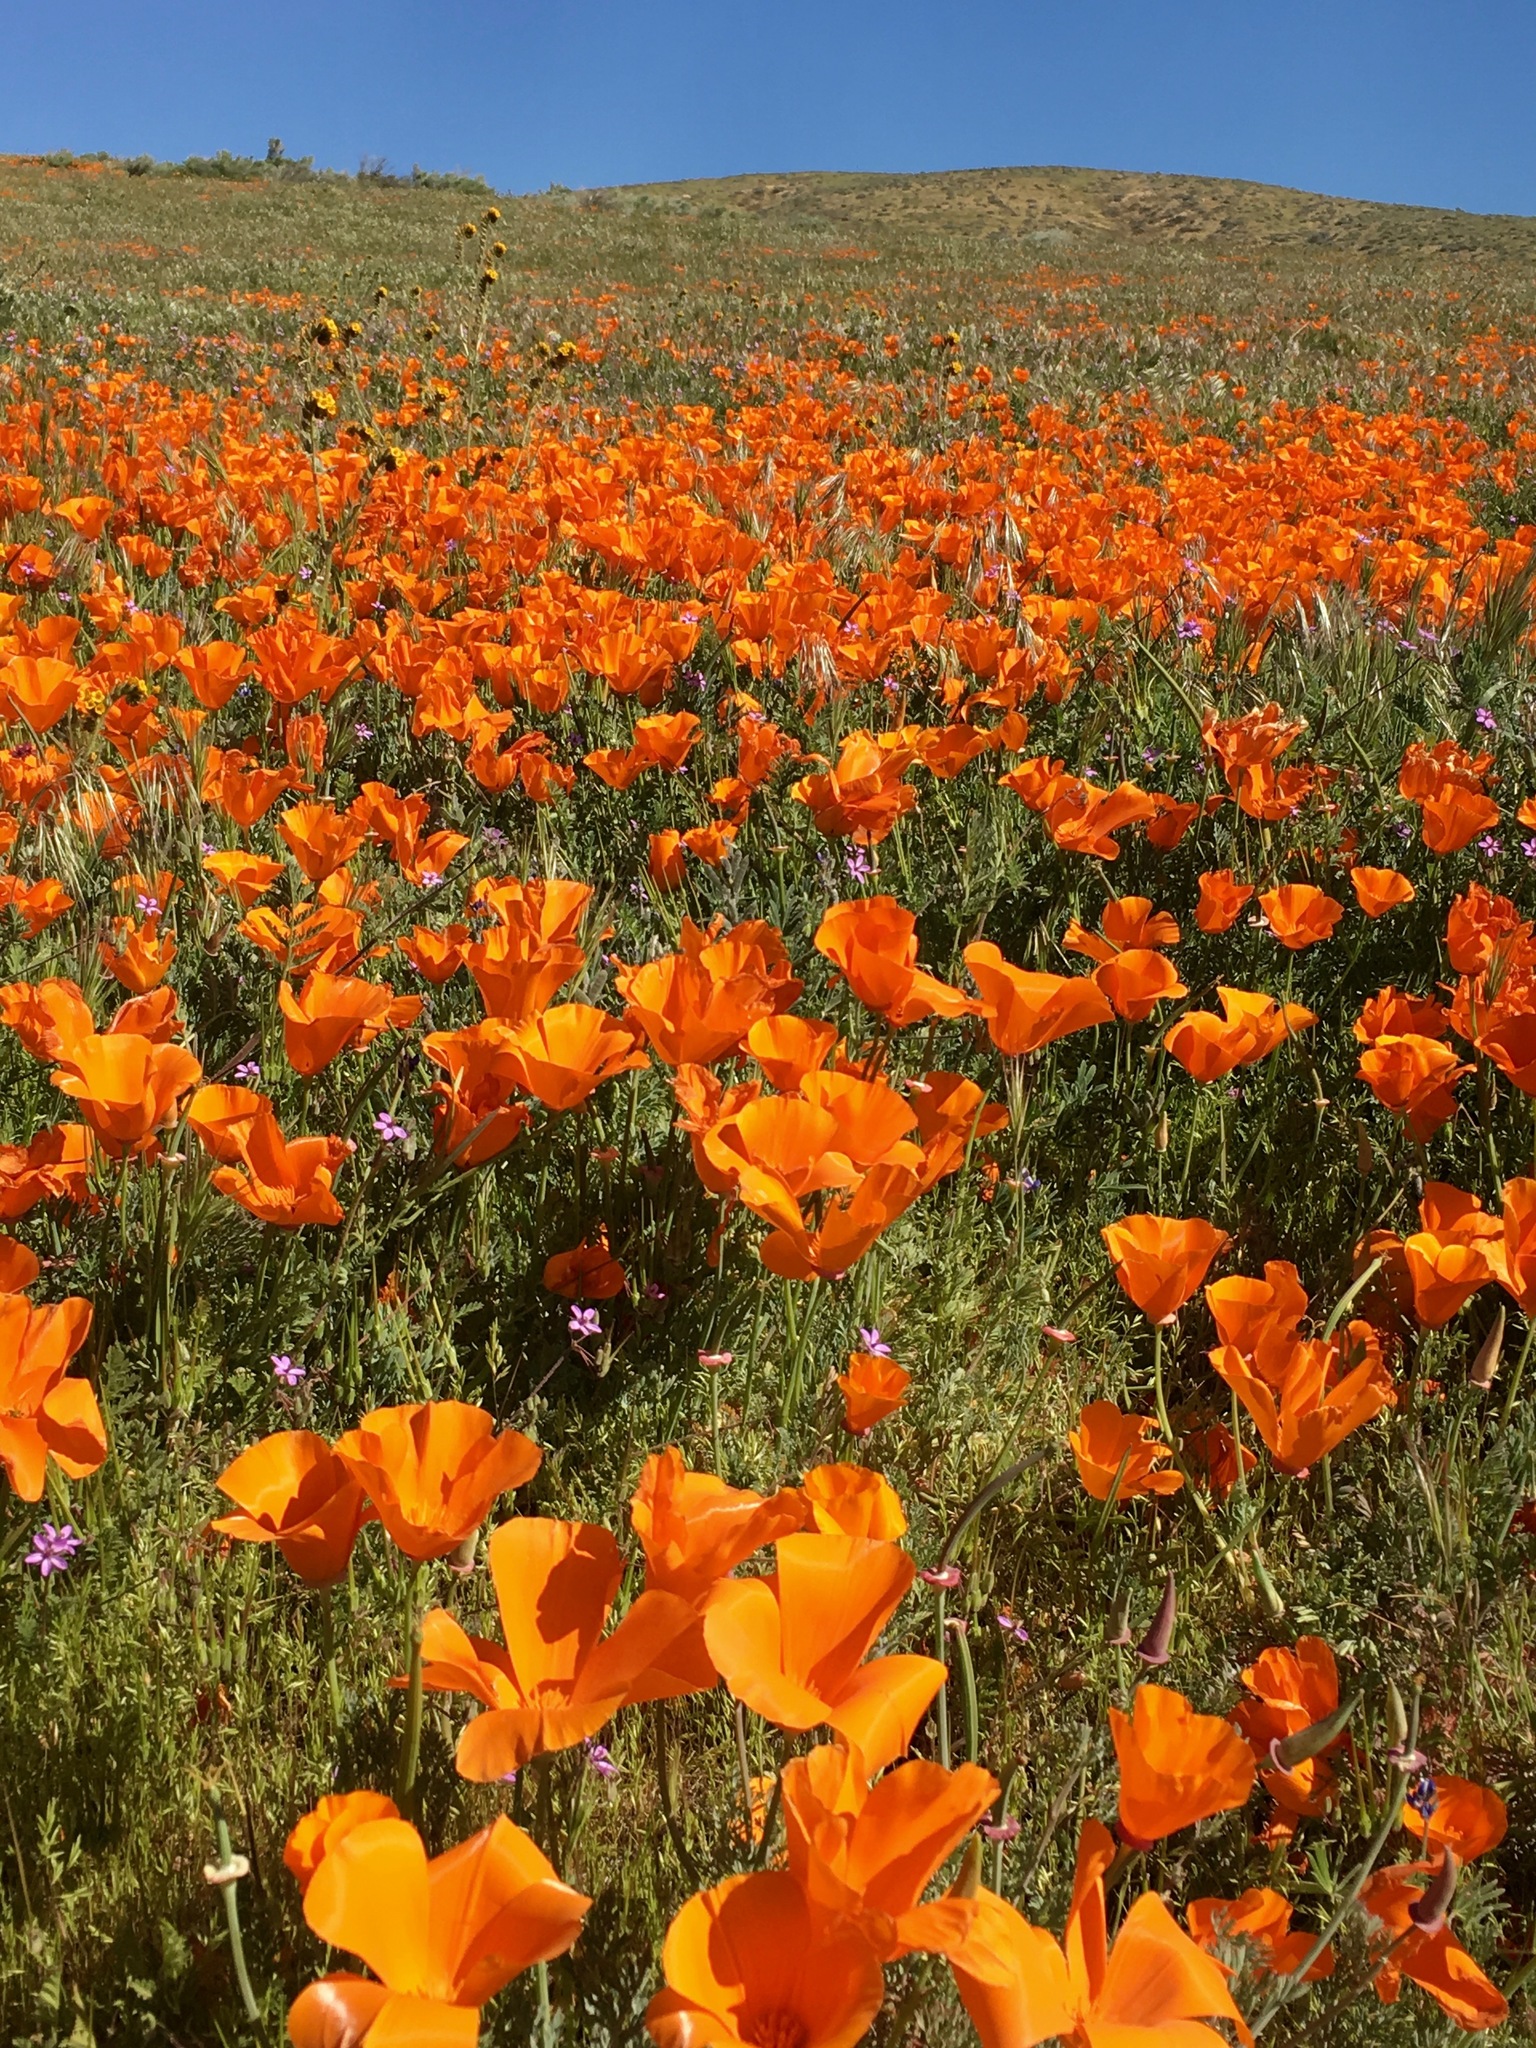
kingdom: Plantae
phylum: Tracheophyta
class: Magnoliopsida
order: Ranunculales
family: Papaveraceae
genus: Eschscholzia
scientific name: Eschscholzia californica
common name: California poppy
